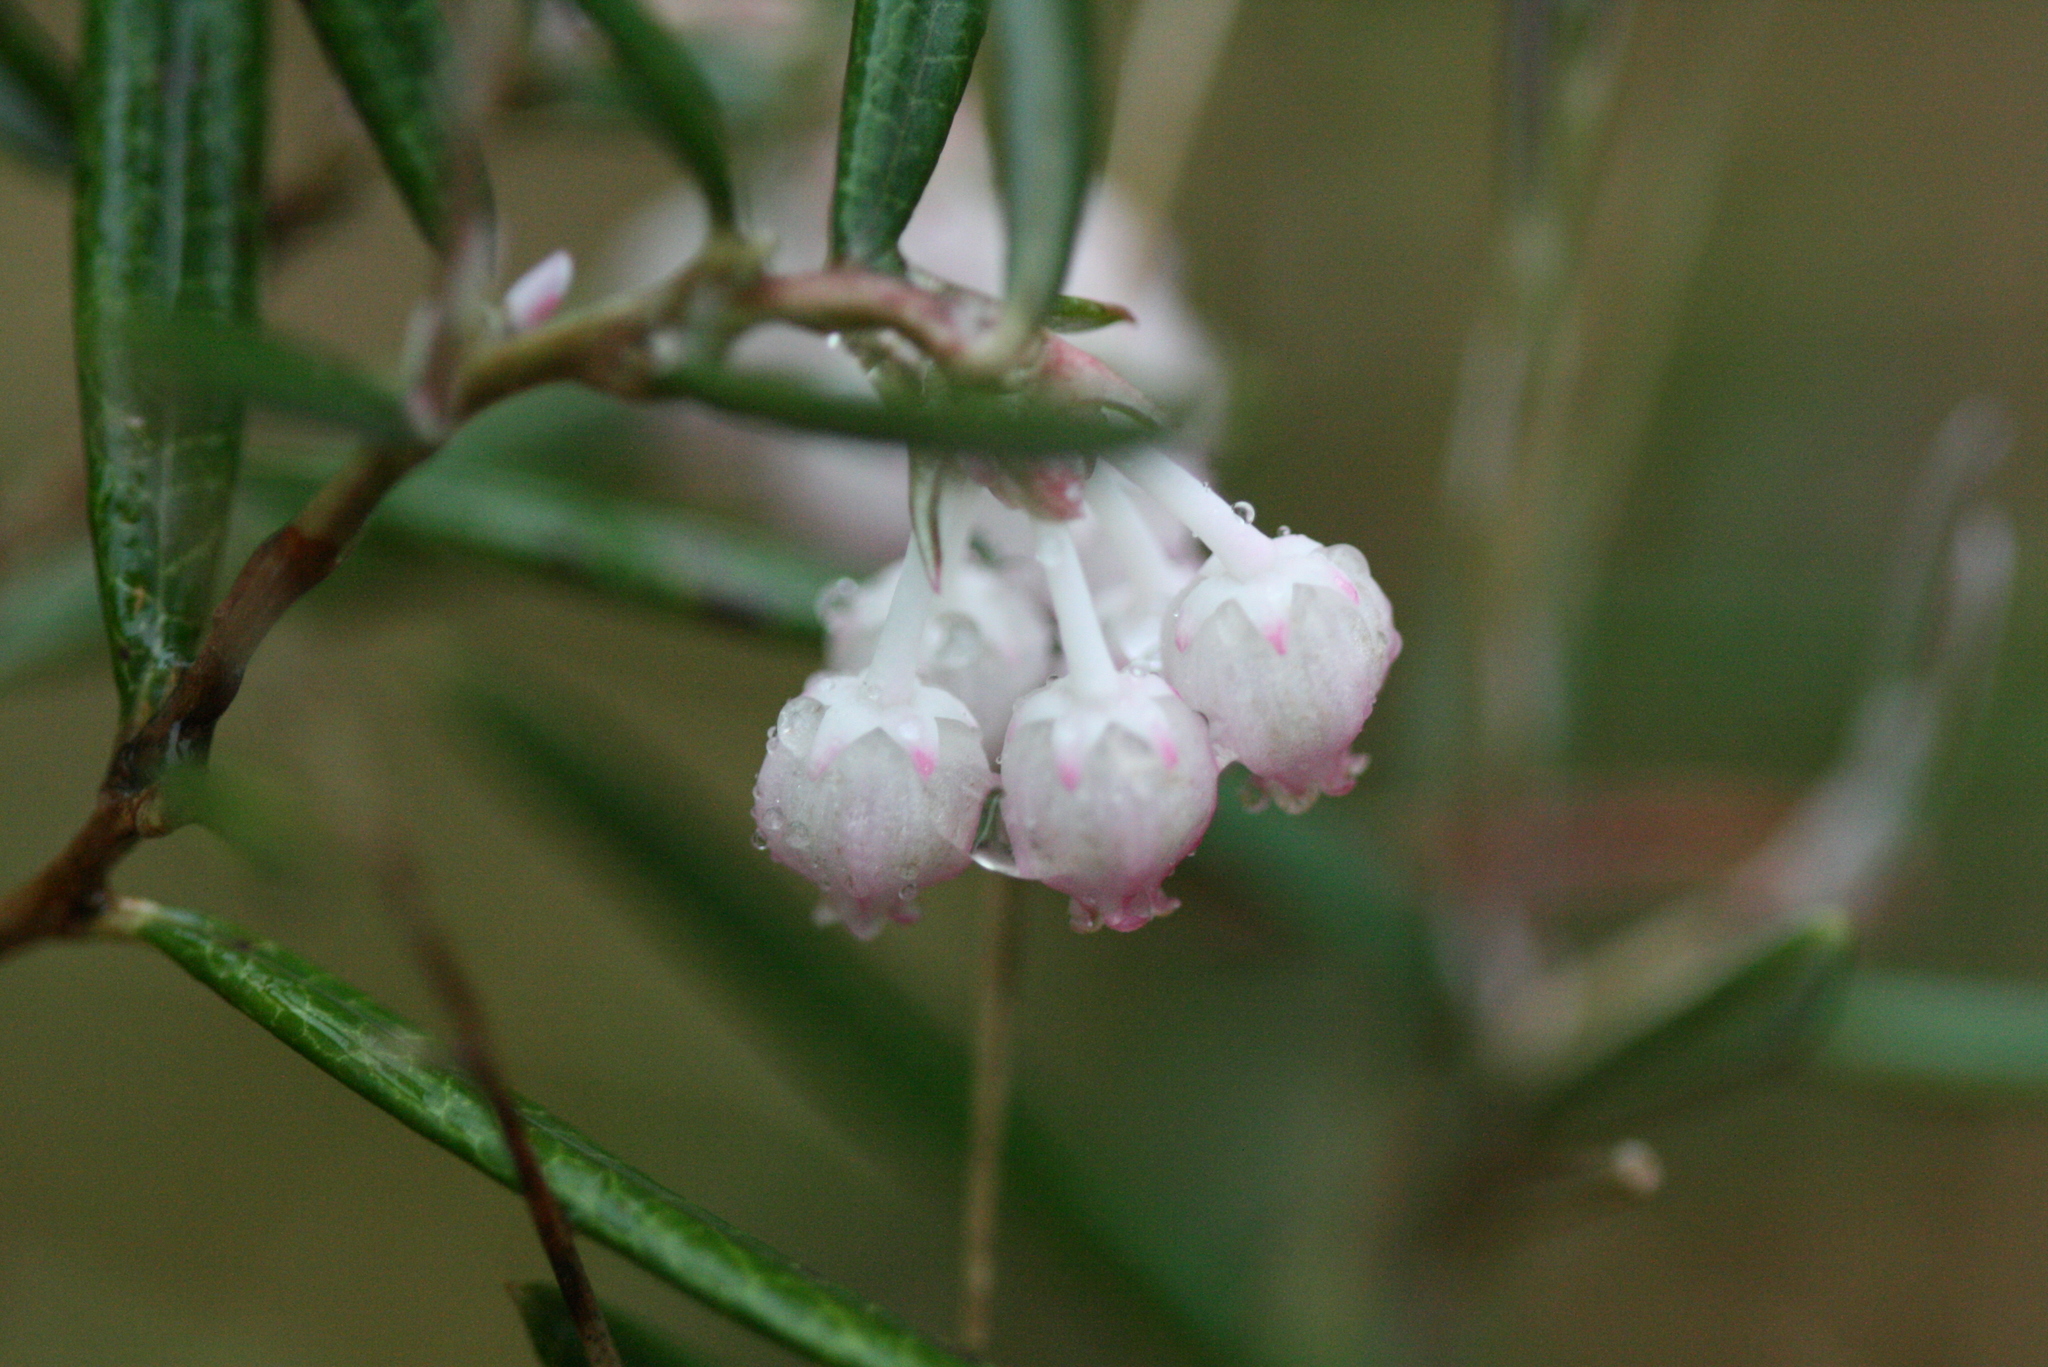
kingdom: Plantae
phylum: Tracheophyta
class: Magnoliopsida
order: Ericales
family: Ericaceae
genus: Andromeda
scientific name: Andromeda polifolia
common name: Bog-rosemary
